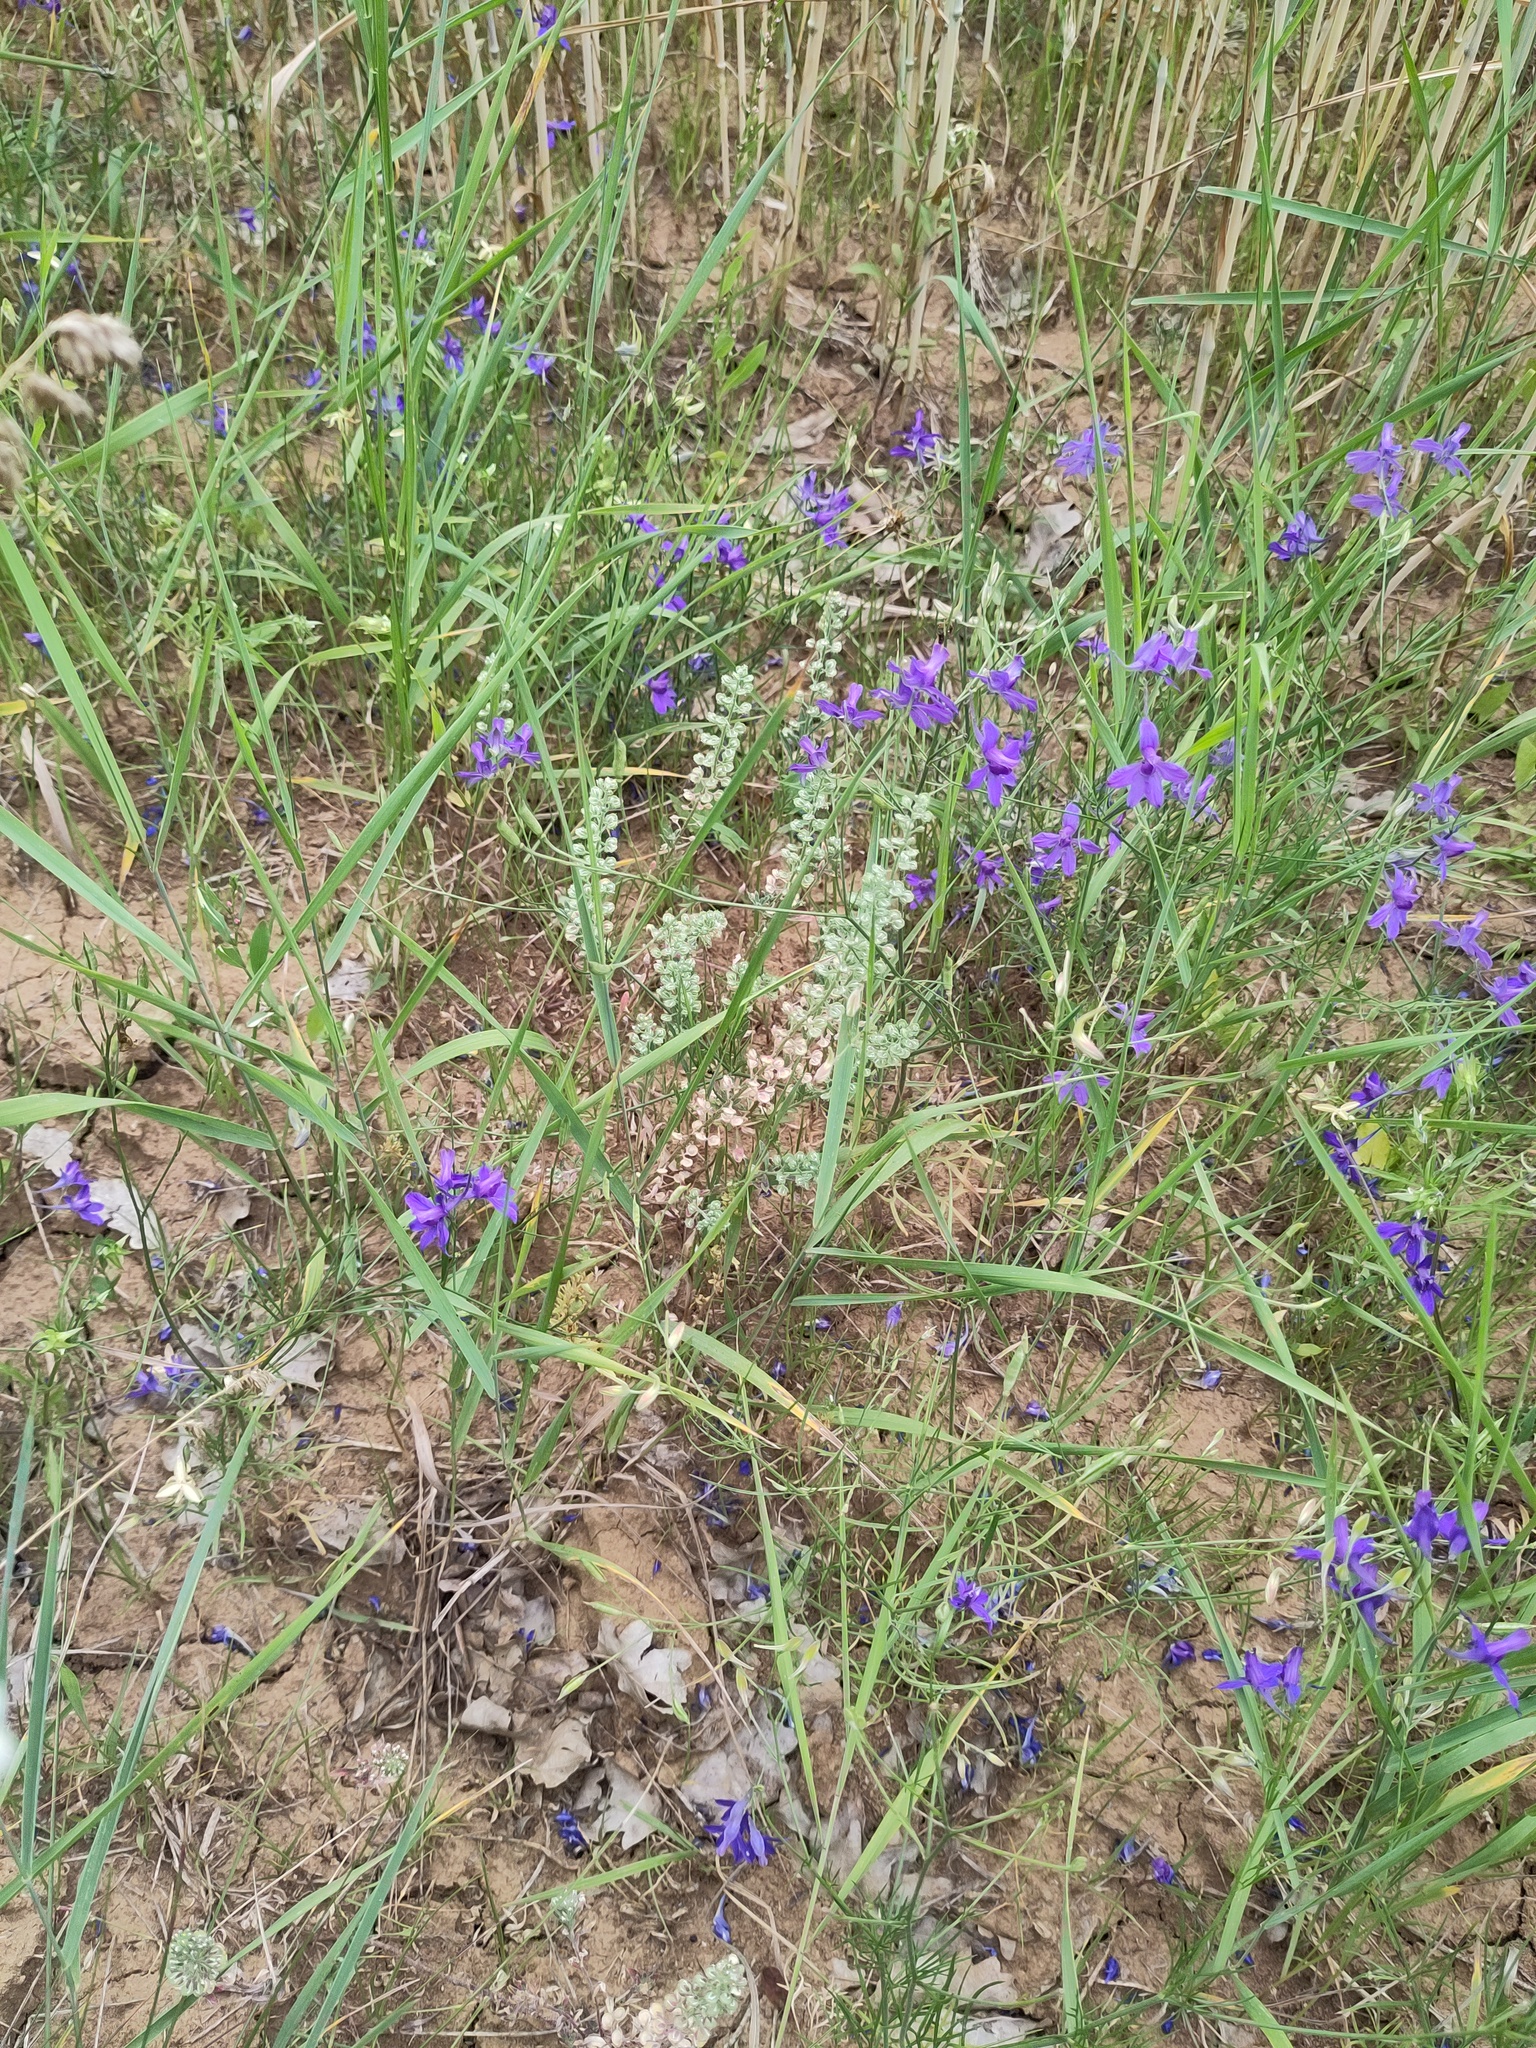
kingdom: Plantae
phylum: Tracheophyta
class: Magnoliopsida
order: Brassicales
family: Brassicaceae
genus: Alyssum
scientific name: Alyssum alyssoides
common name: Small alison
